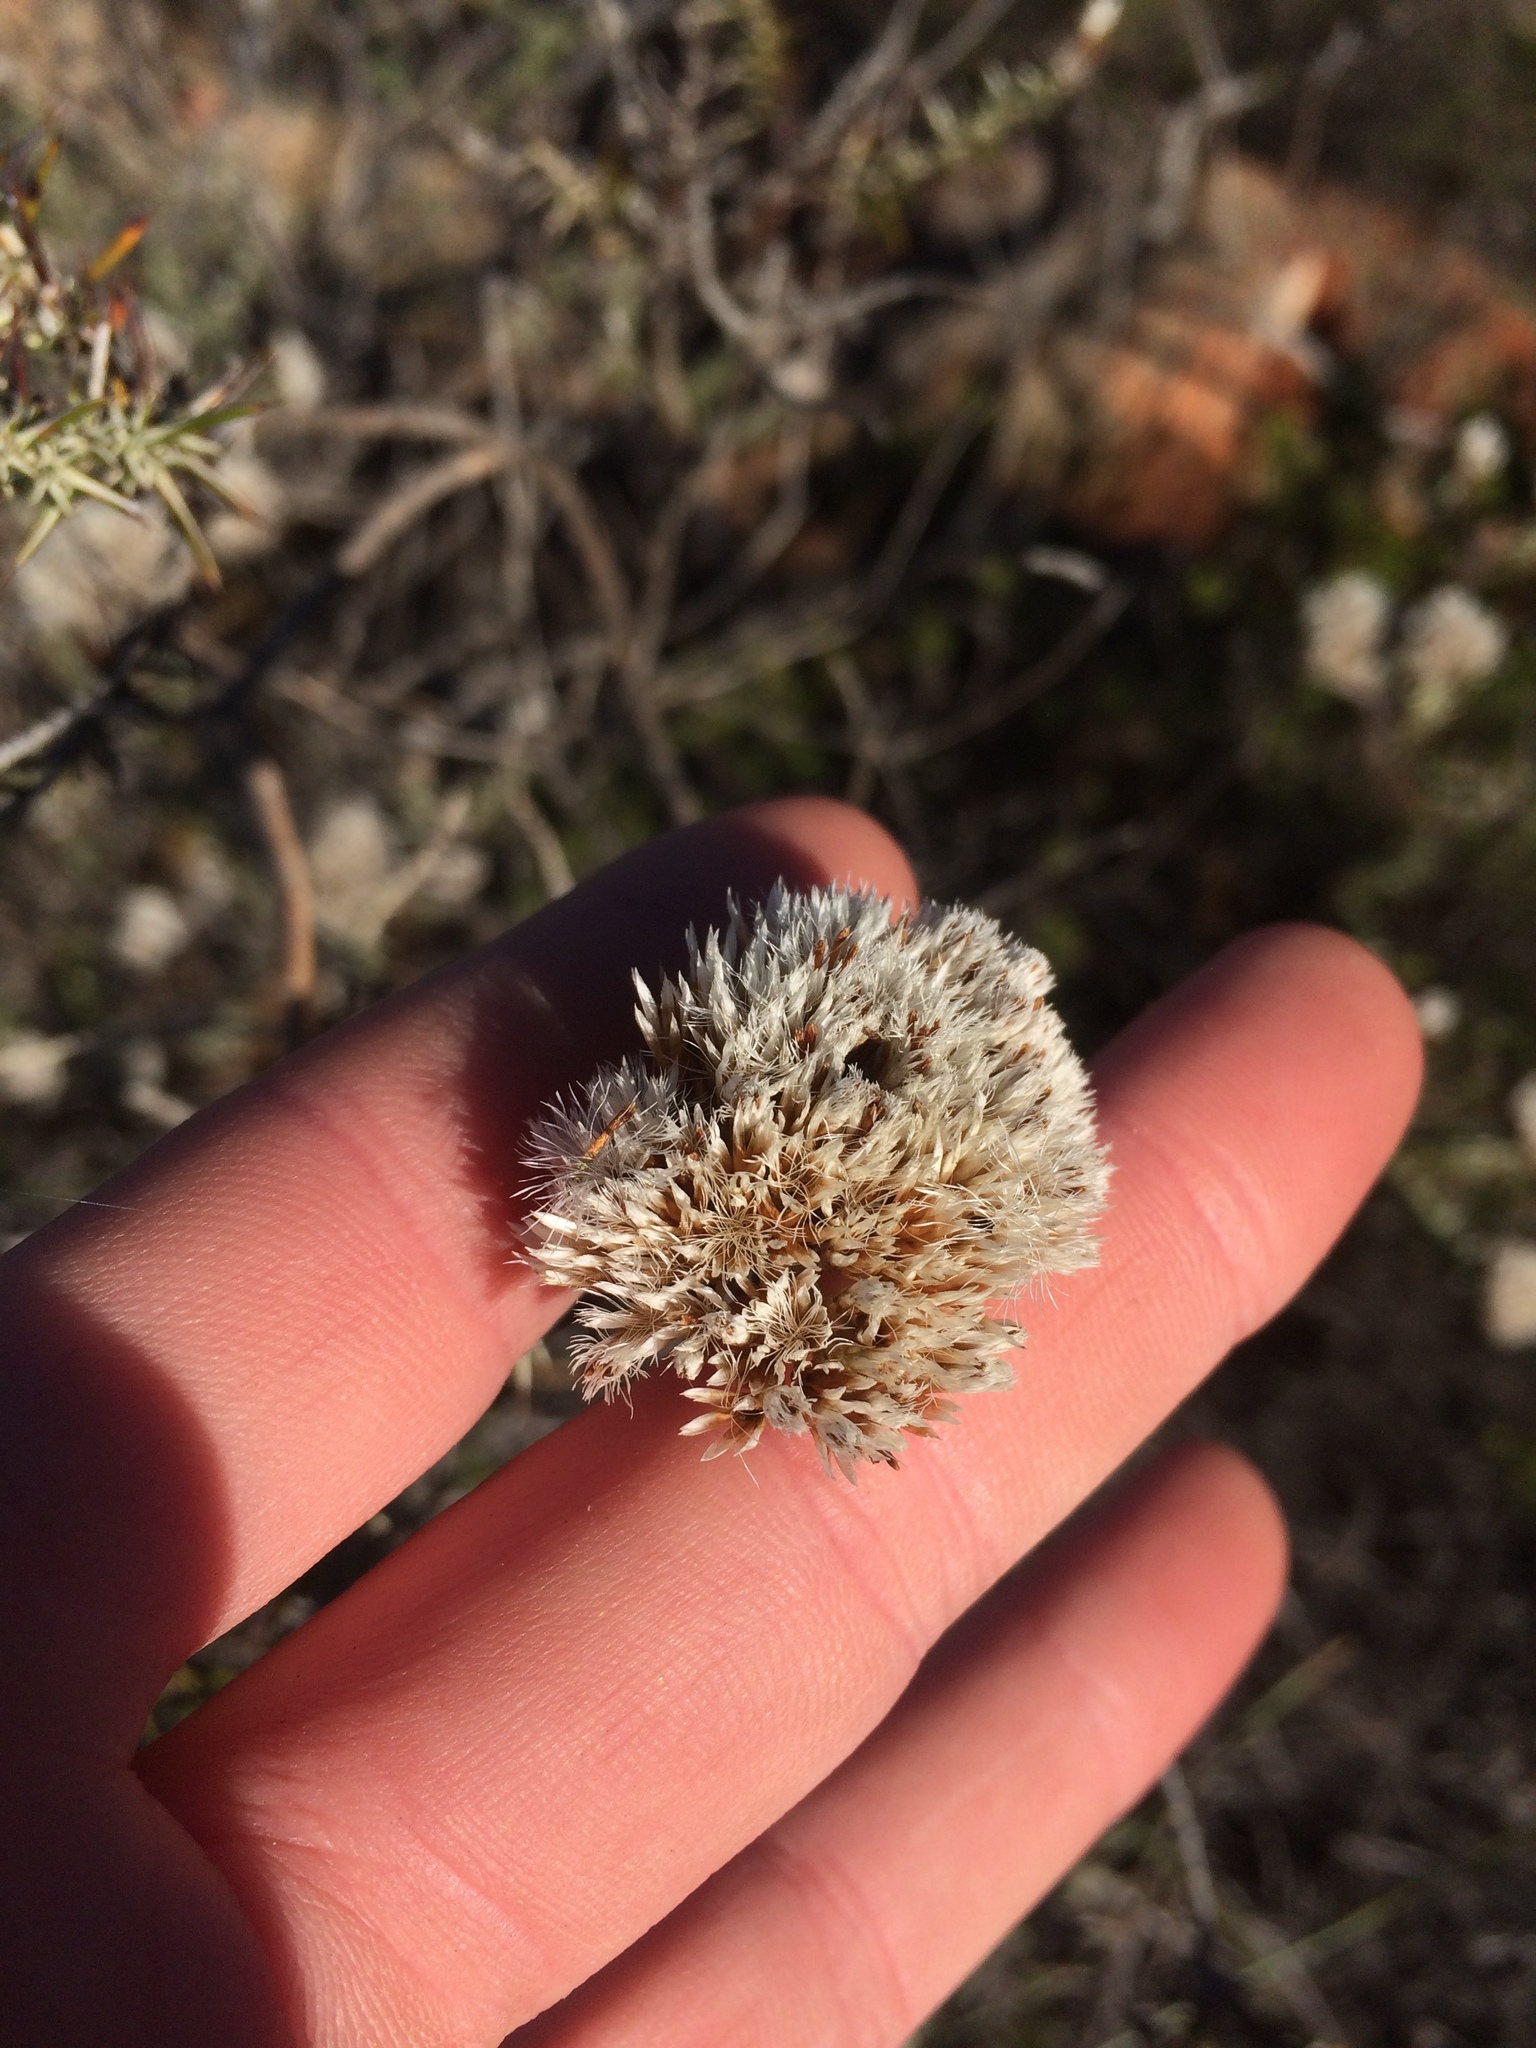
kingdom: Plantae
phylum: Tracheophyta
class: Magnoliopsida
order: Asterales
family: Asteraceae
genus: Metalasia
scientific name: Metalasia acuta
